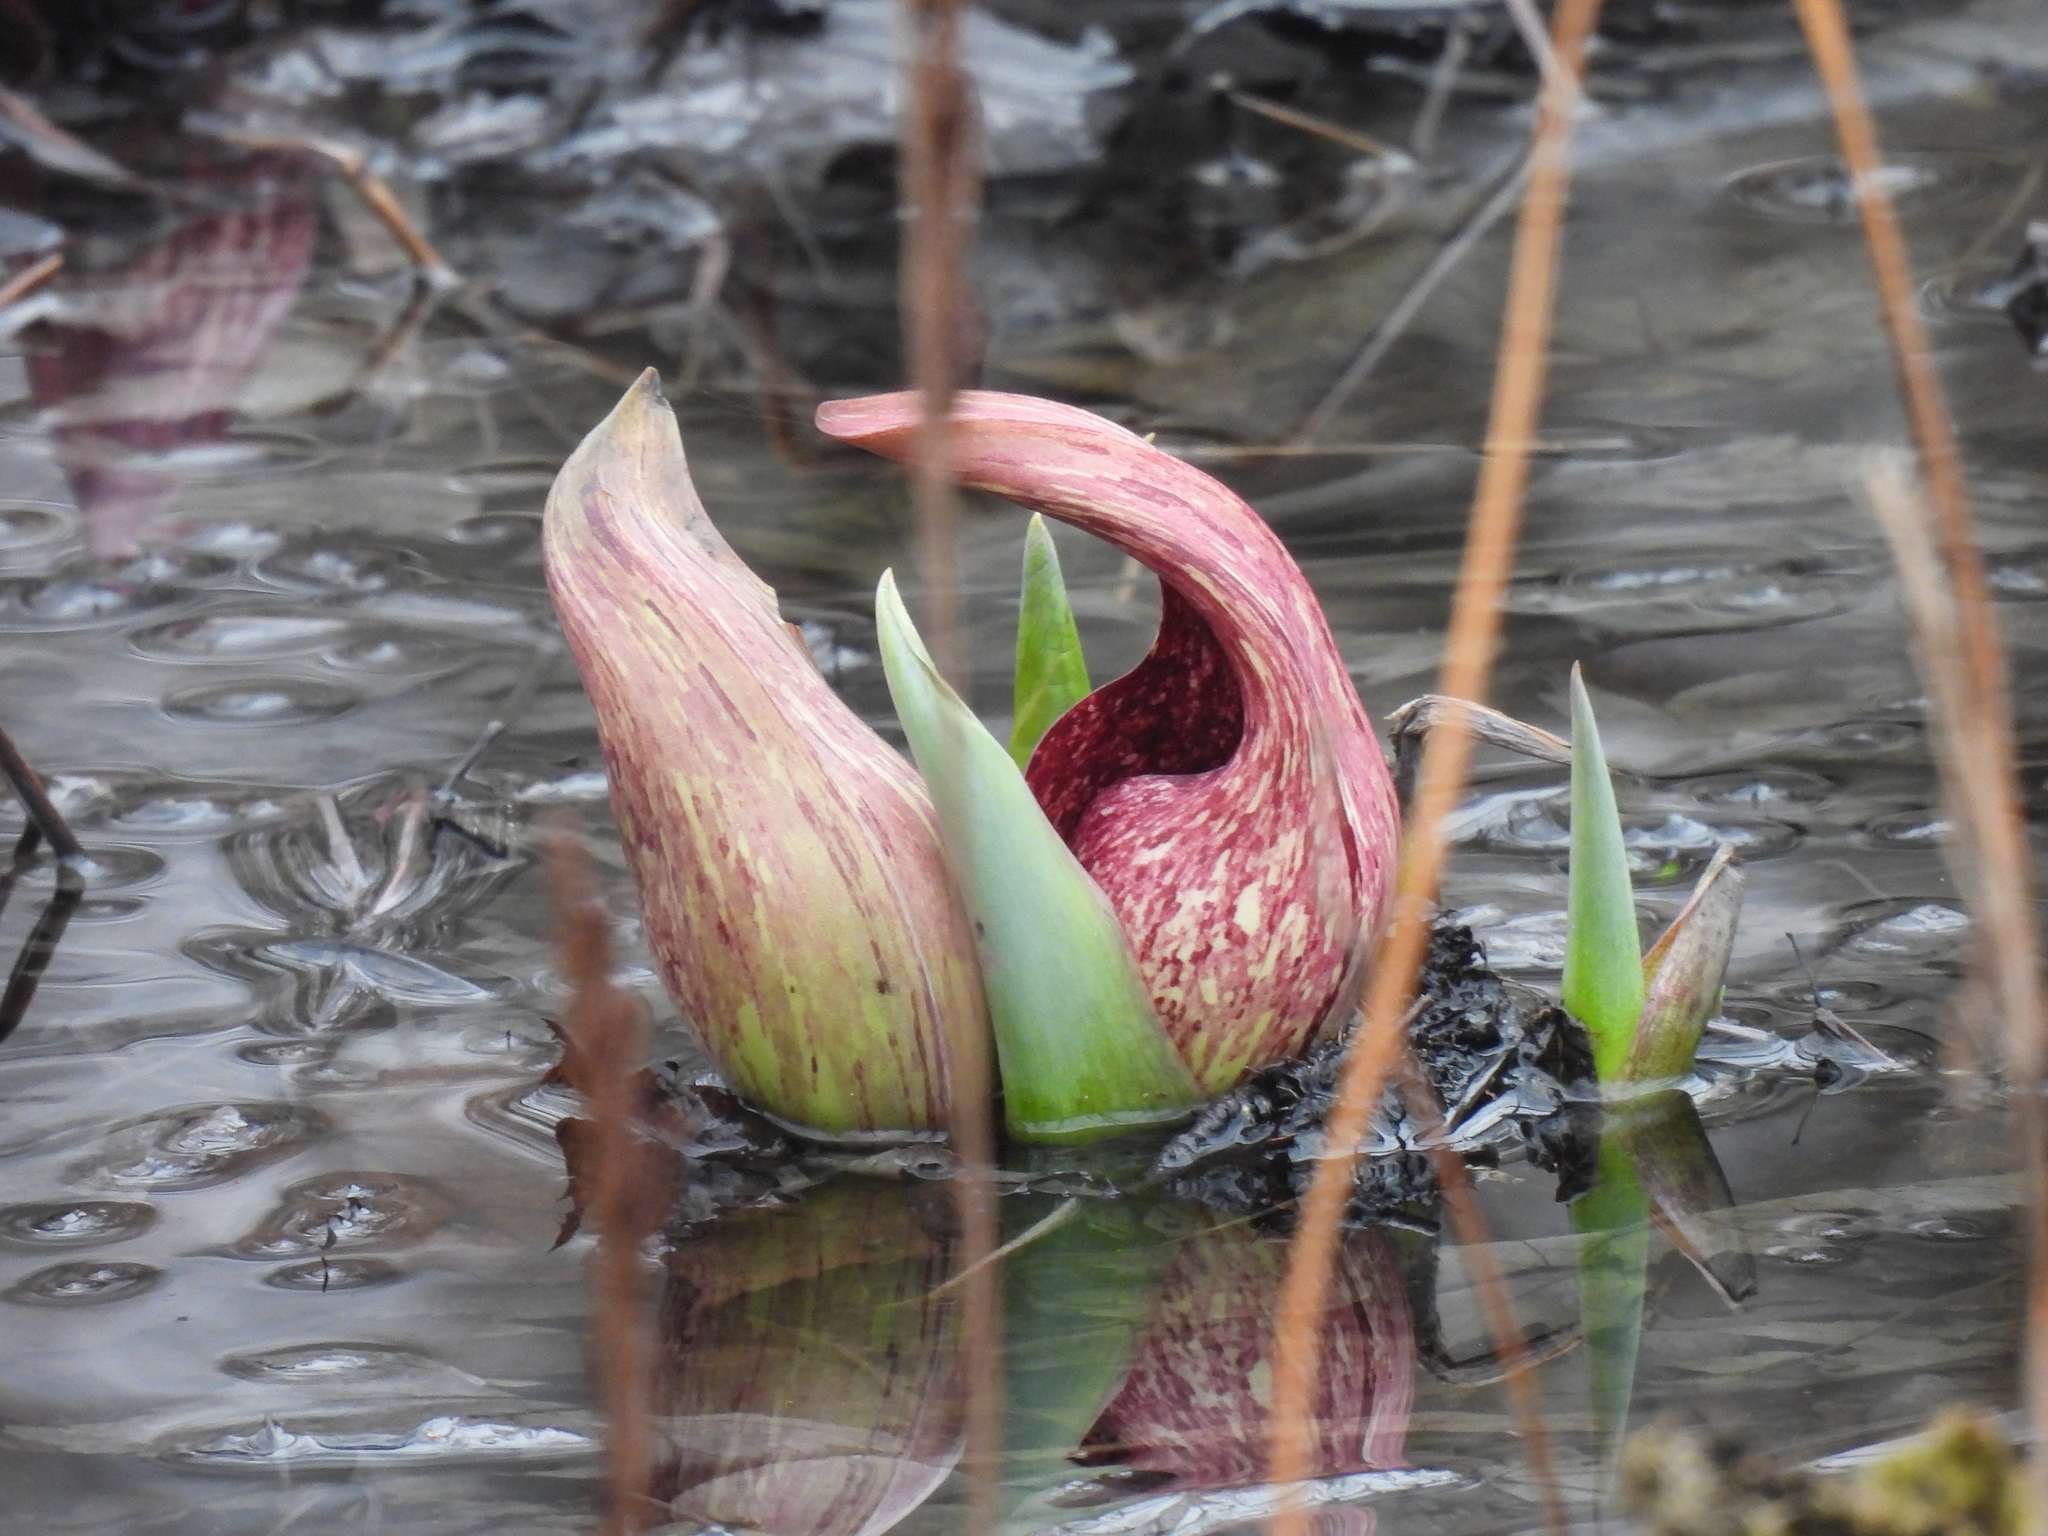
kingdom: Plantae
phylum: Tracheophyta
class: Liliopsida
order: Alismatales
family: Araceae
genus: Symplocarpus
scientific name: Symplocarpus foetidus
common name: Eastern skunk cabbage
